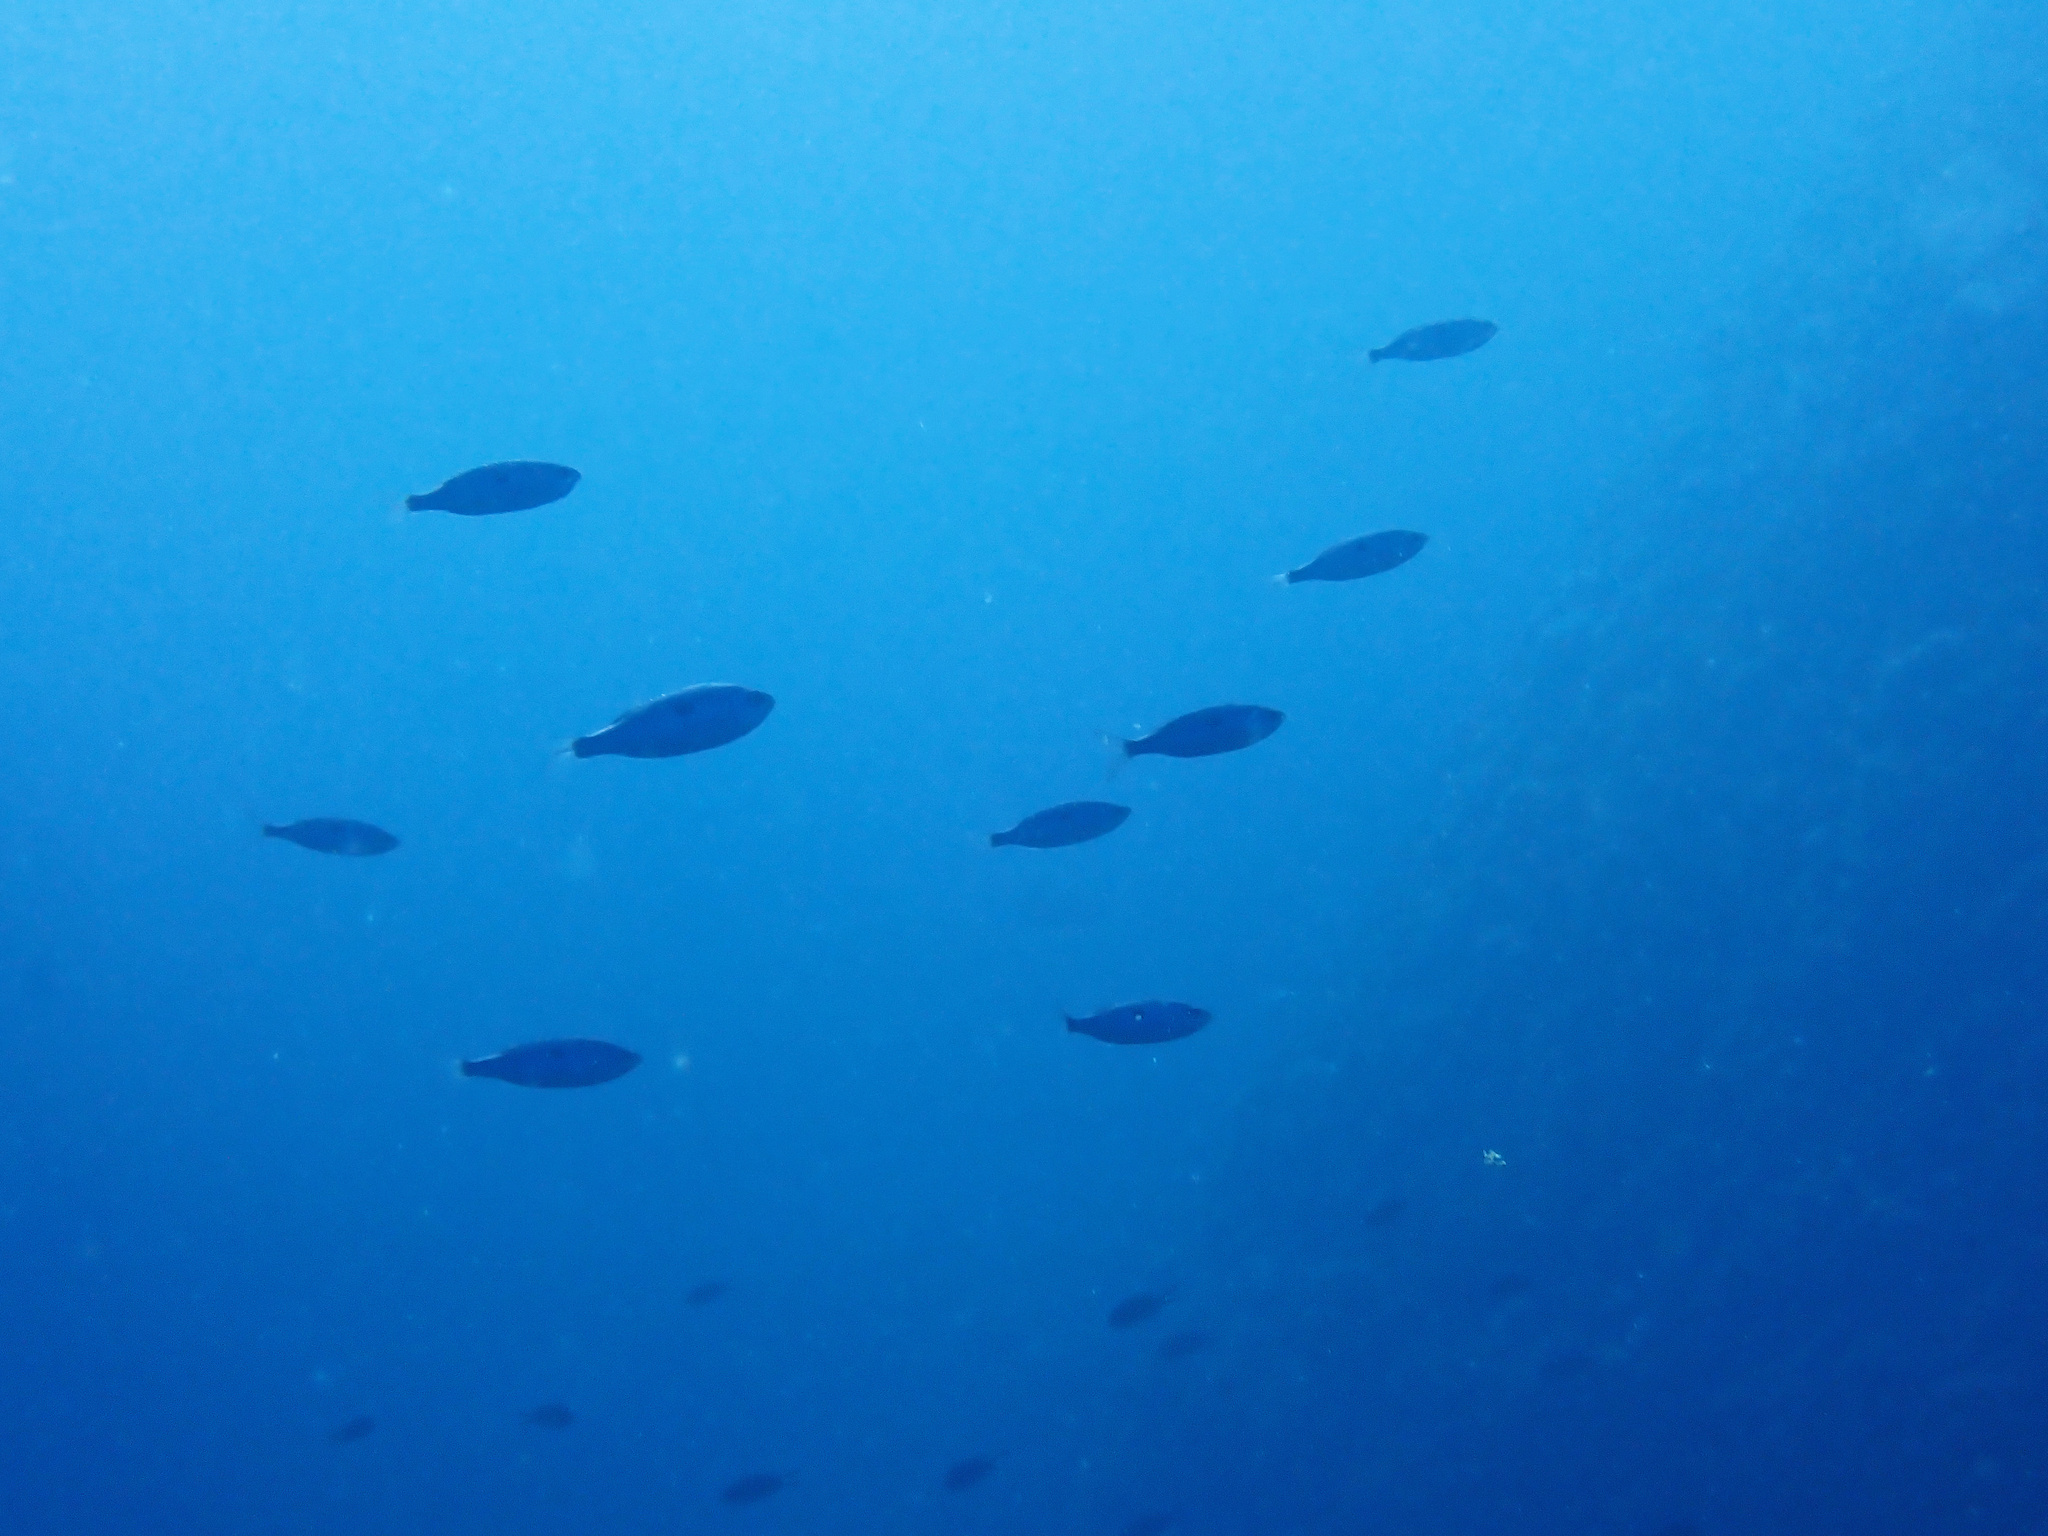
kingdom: Animalia
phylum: Chordata
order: Perciformes
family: Sparidae
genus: Spicara
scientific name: Spicara maena
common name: Blotched picarel
